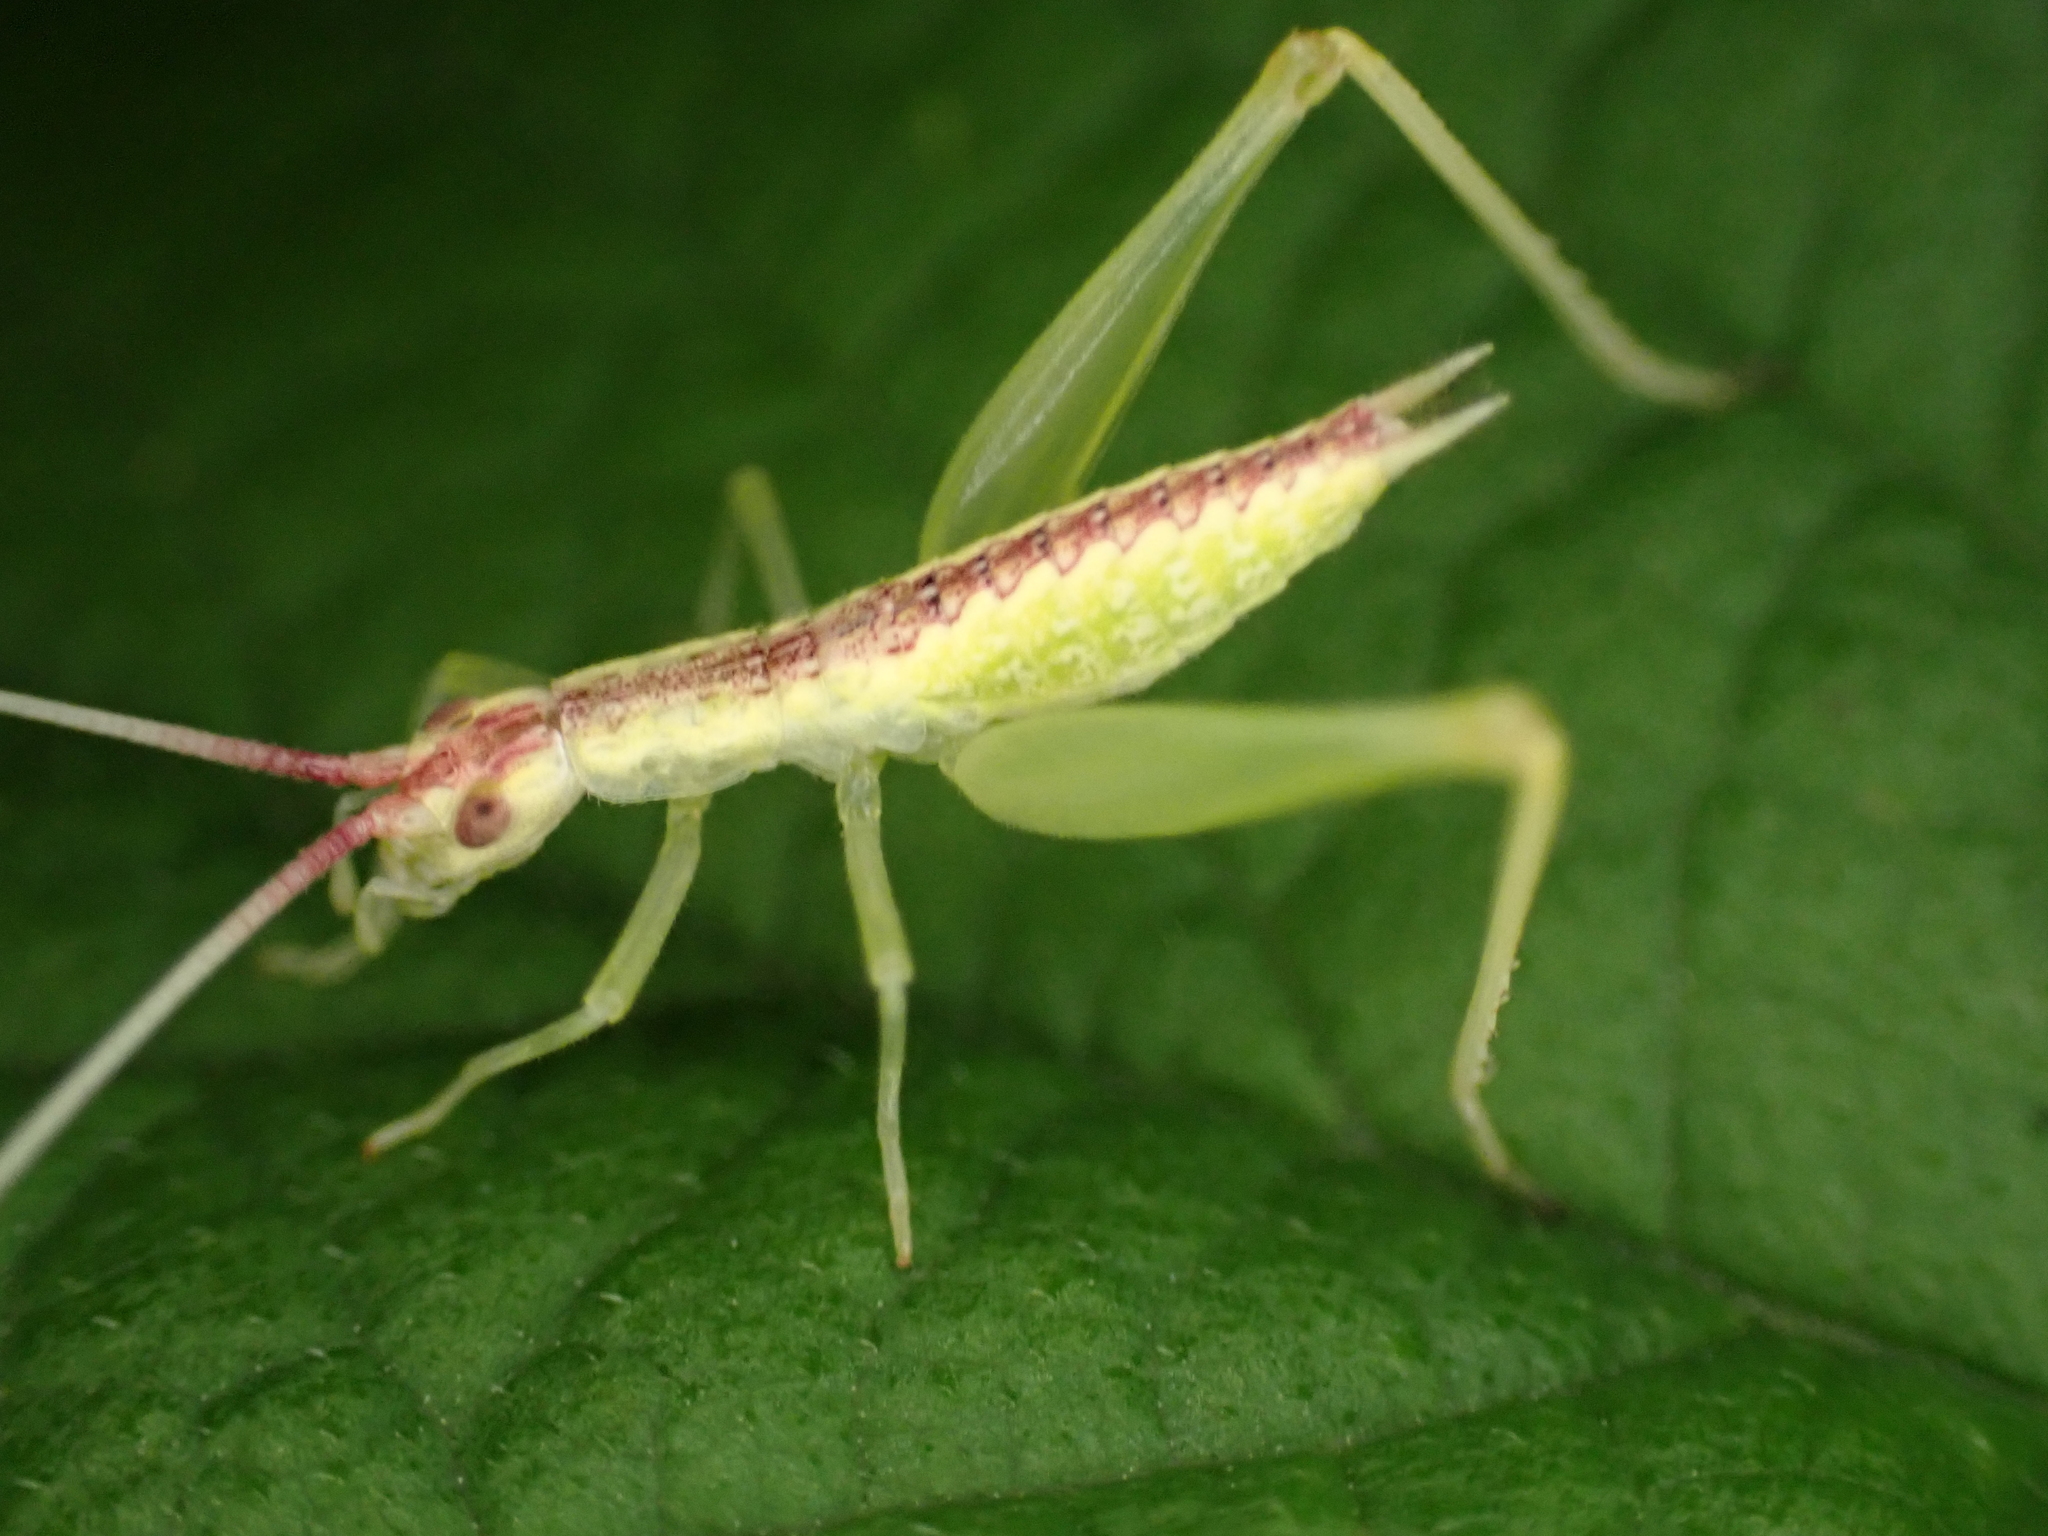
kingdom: Animalia
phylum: Arthropoda
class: Insecta
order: Orthoptera
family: Gryllidae
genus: Oecanthus
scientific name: Oecanthus latipennis
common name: Broad-winged tree cricket
